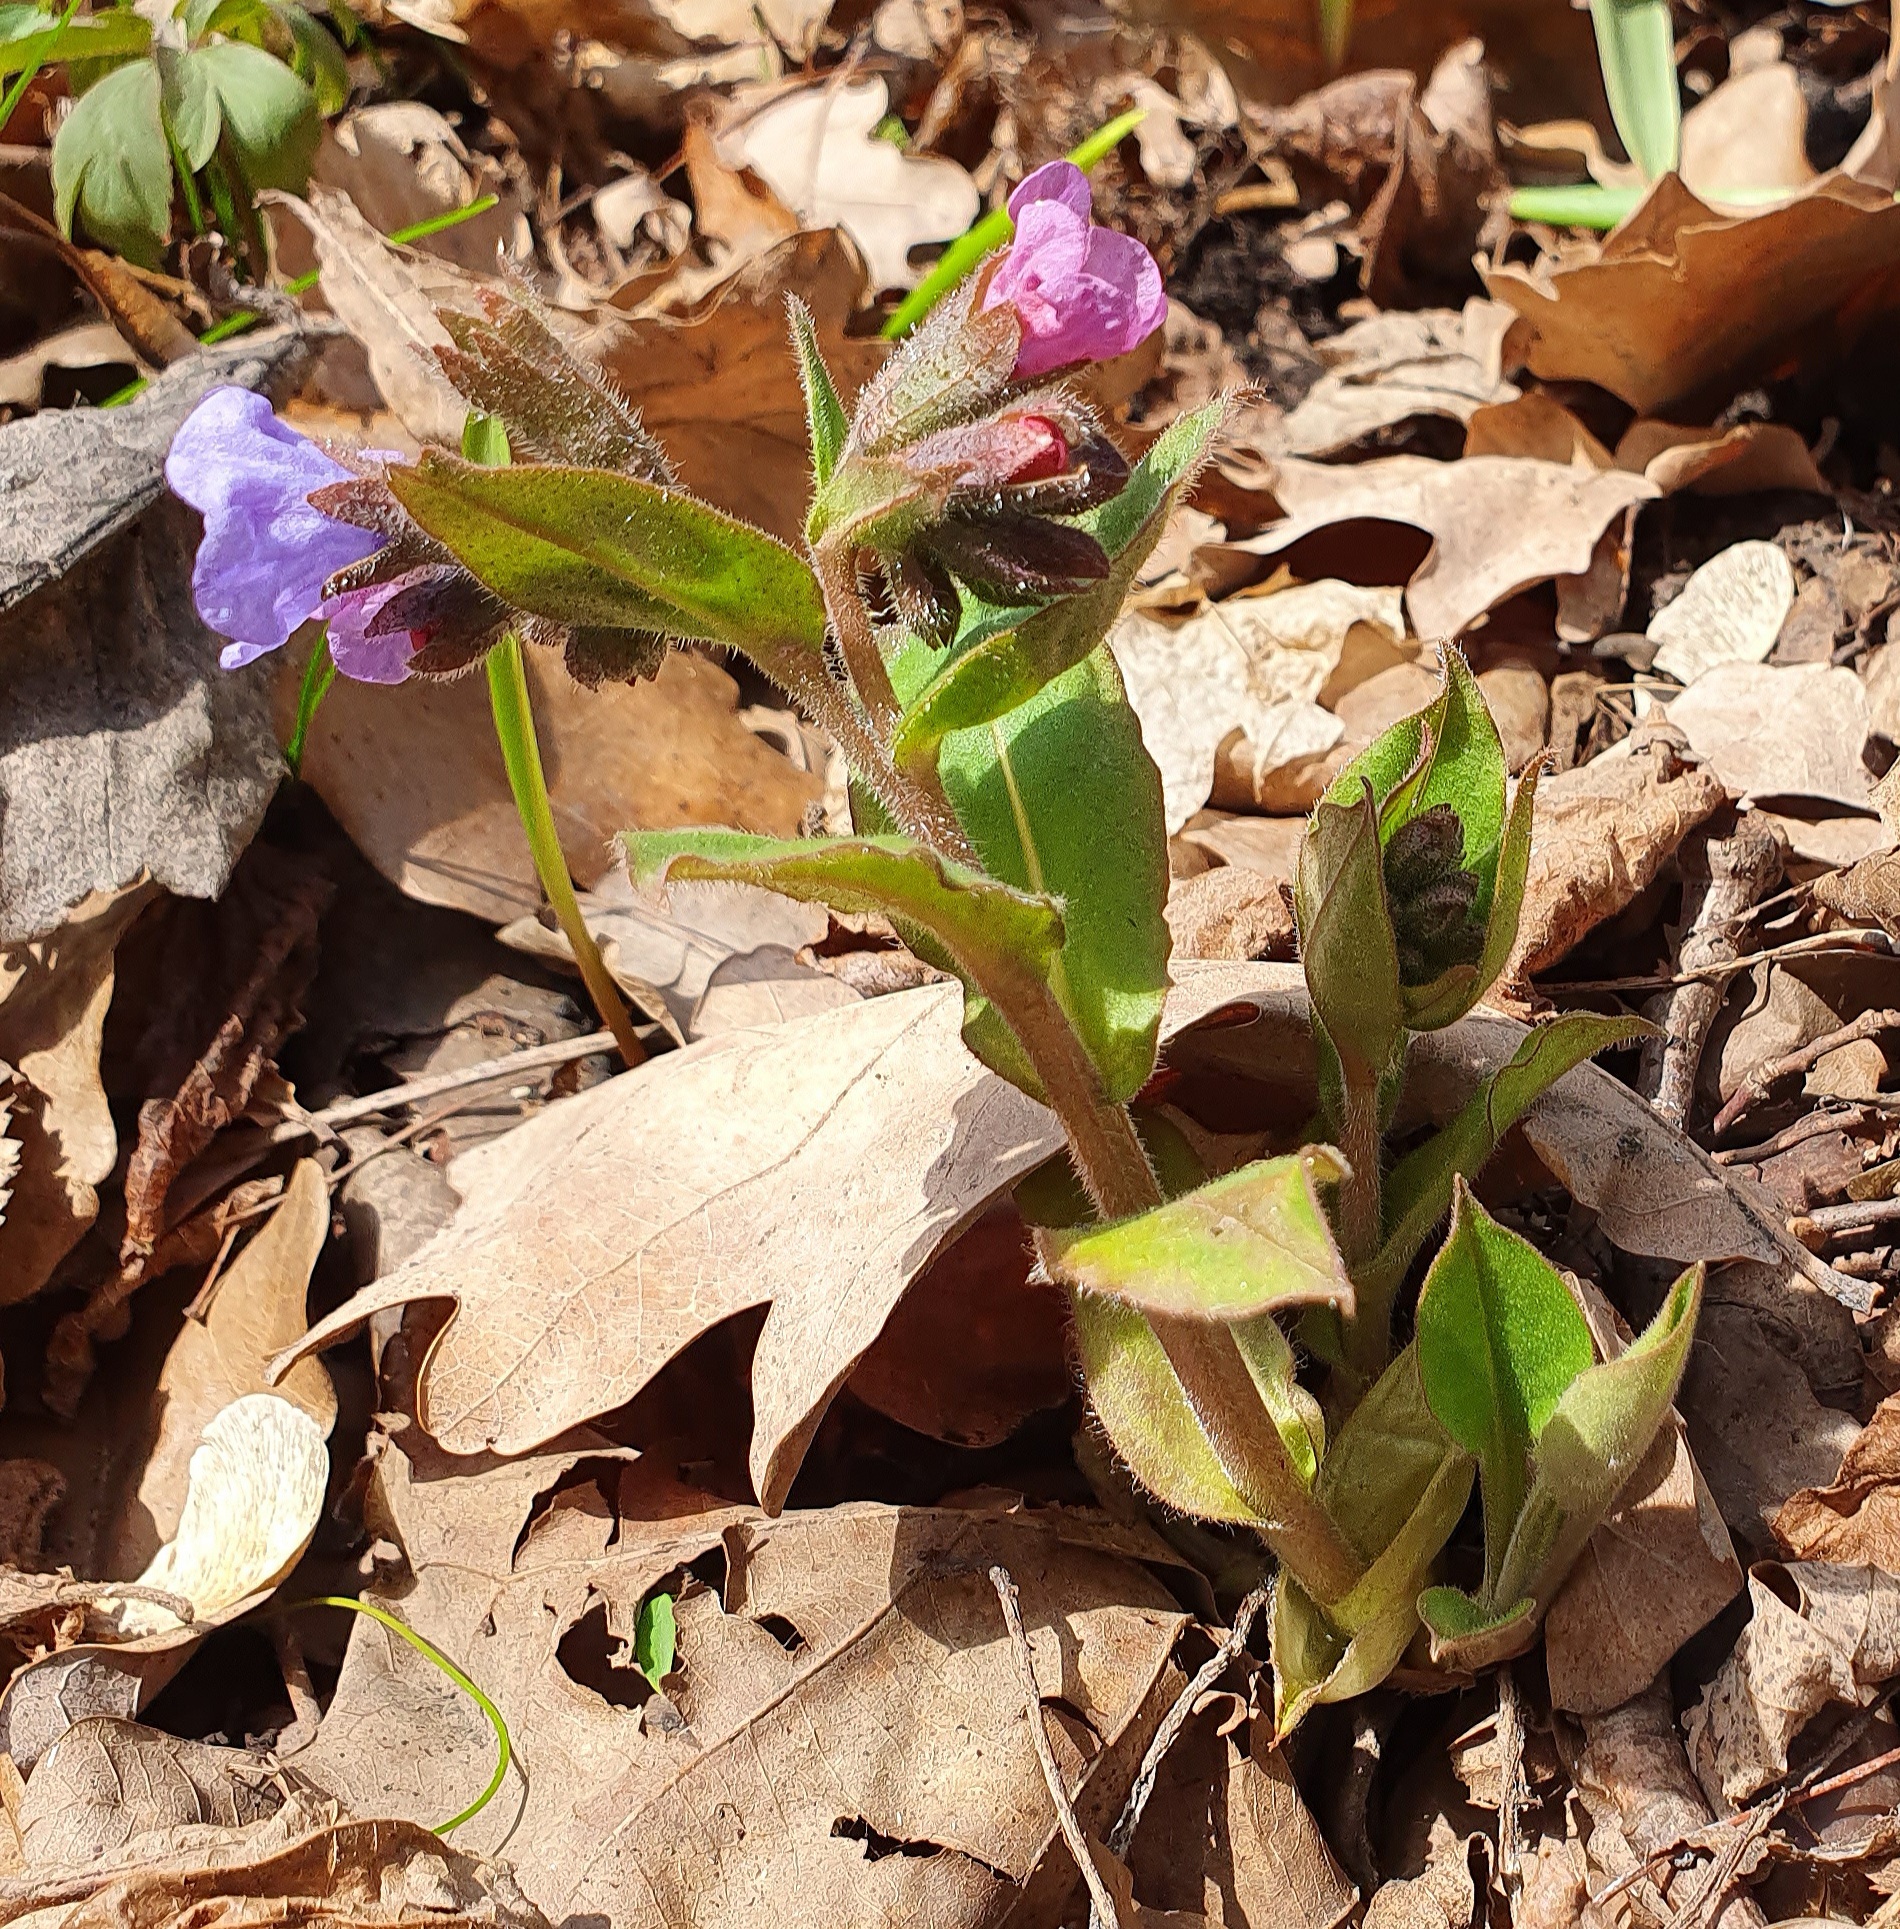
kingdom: Plantae
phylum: Tracheophyta
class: Magnoliopsida
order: Boraginales
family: Boraginaceae
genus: Pulmonaria
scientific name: Pulmonaria obscura
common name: Suffolk lungwort
